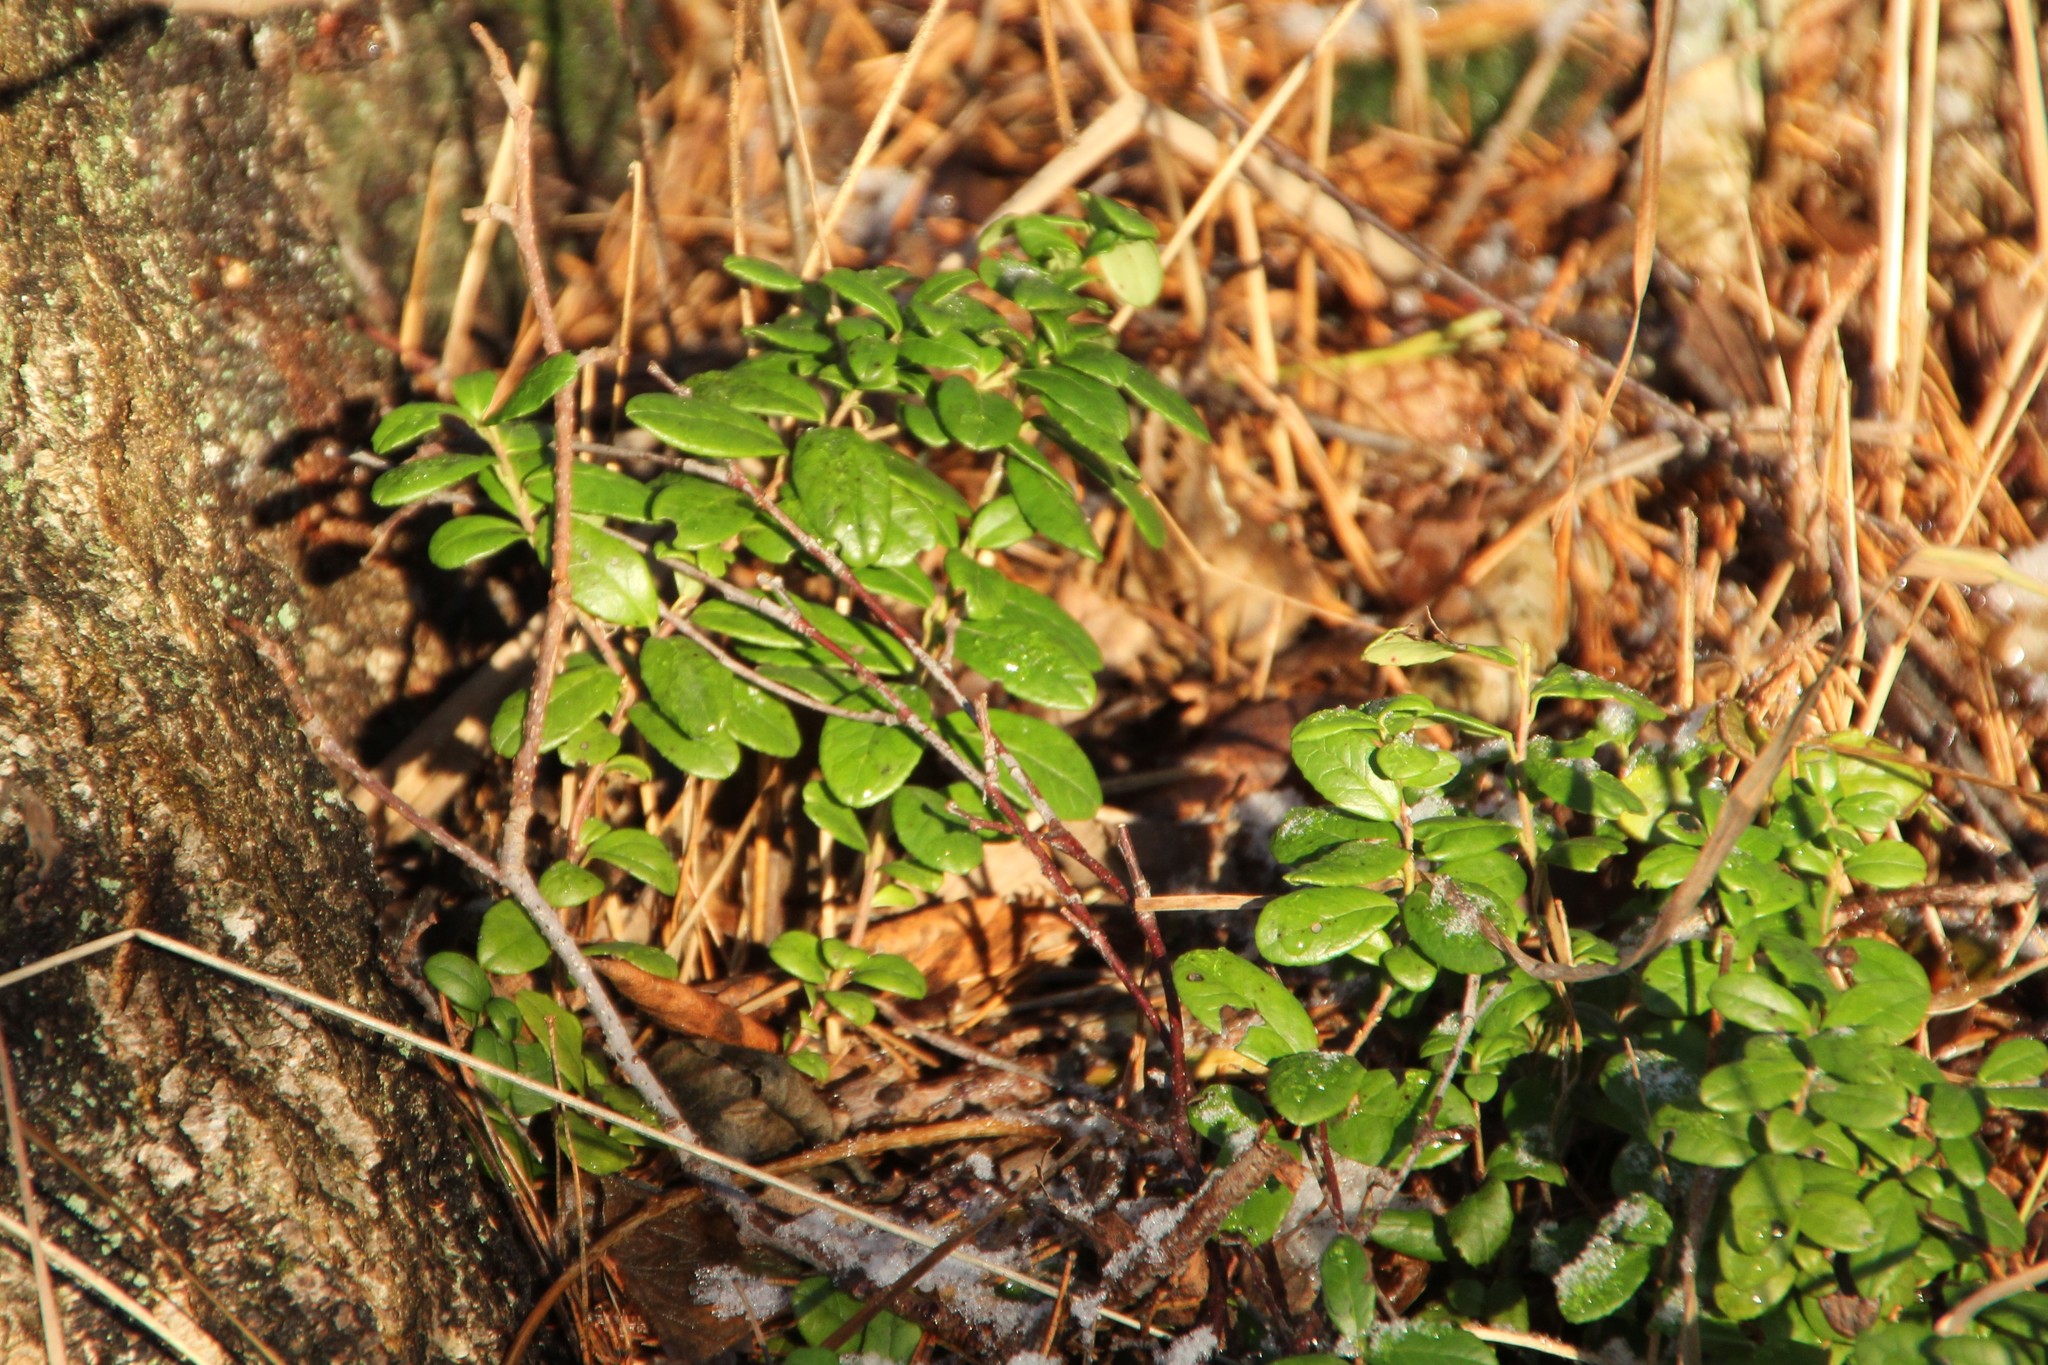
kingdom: Plantae
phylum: Tracheophyta
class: Magnoliopsida
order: Ericales
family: Ericaceae
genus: Vaccinium
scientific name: Vaccinium vitis-idaea
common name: Cowberry
